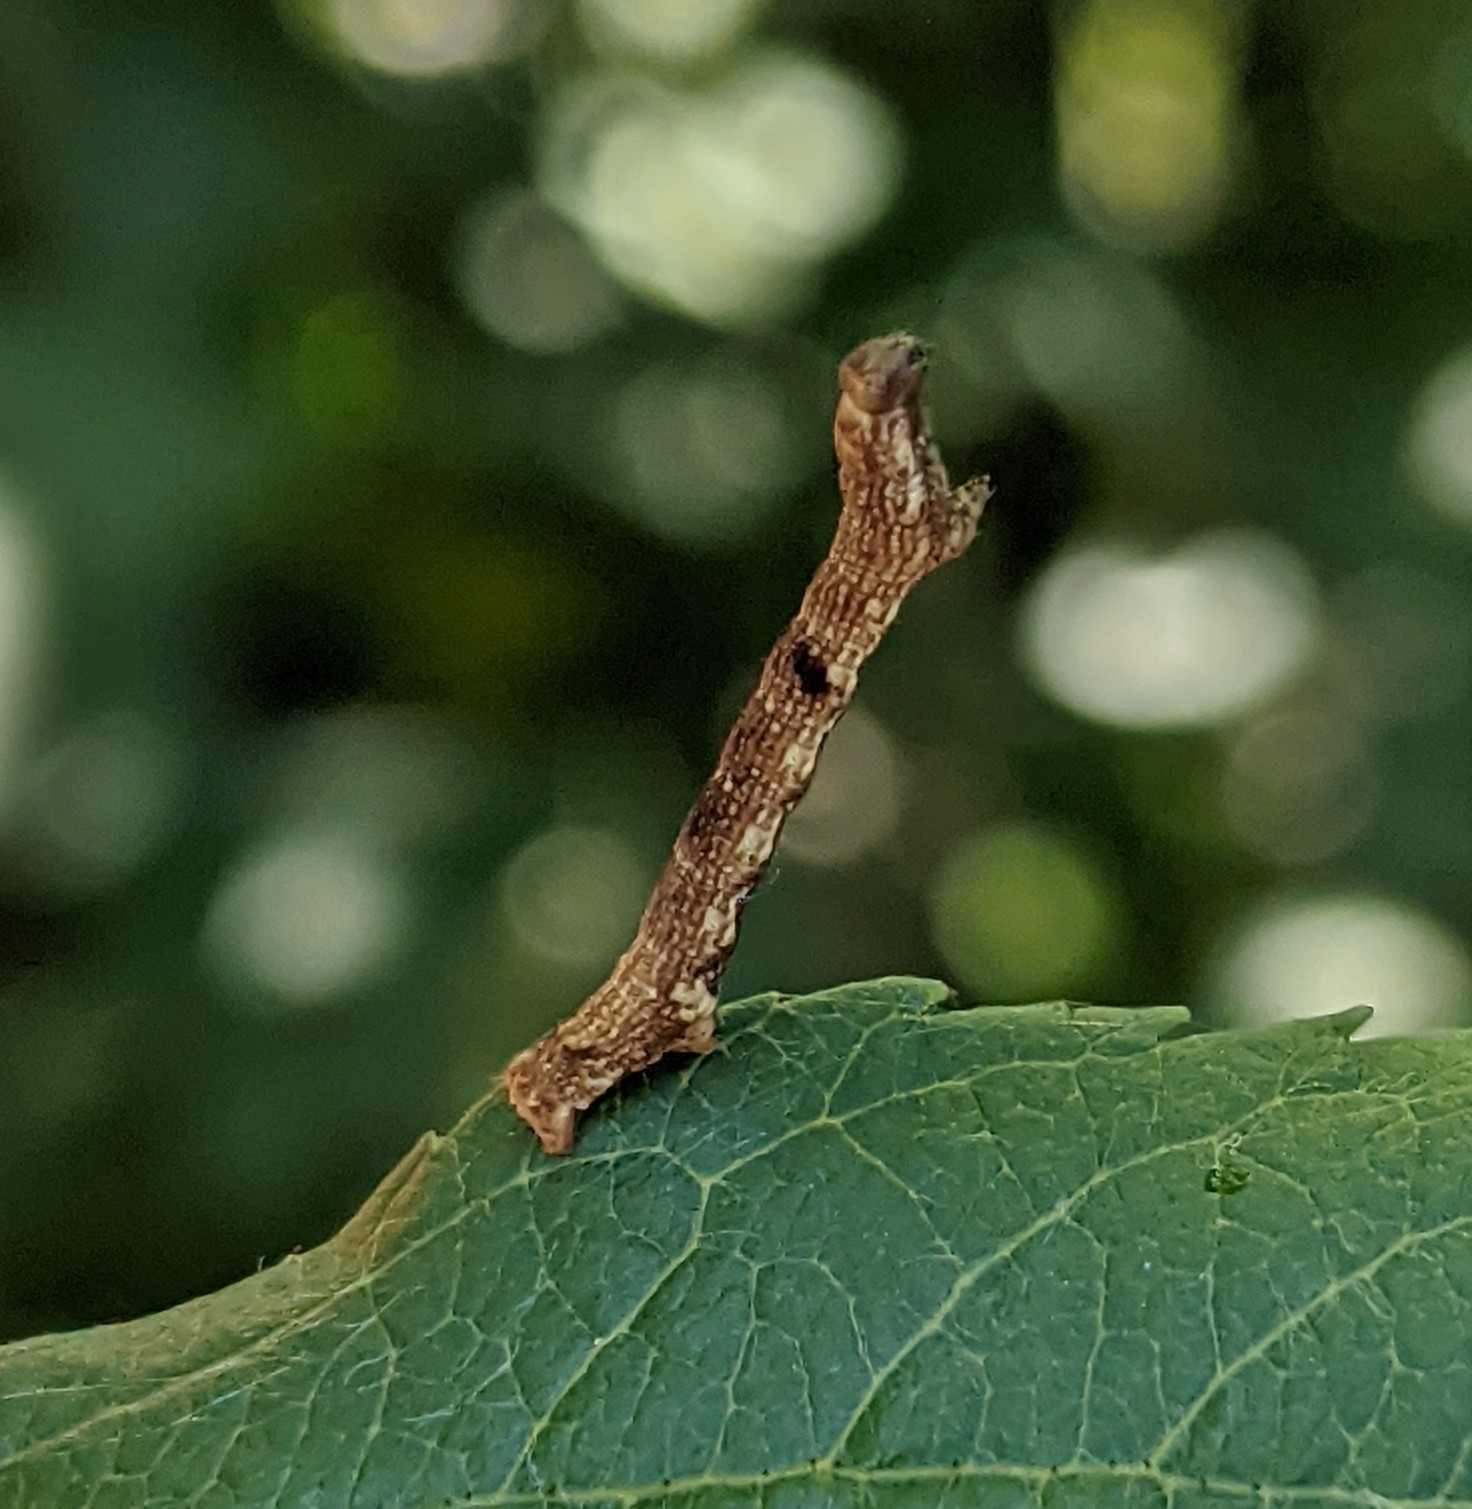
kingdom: Animalia
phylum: Arthropoda
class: Insecta
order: Lepidoptera
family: Geometridae
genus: Ectropis
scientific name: Ectropis crepuscularia
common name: Engrailed
